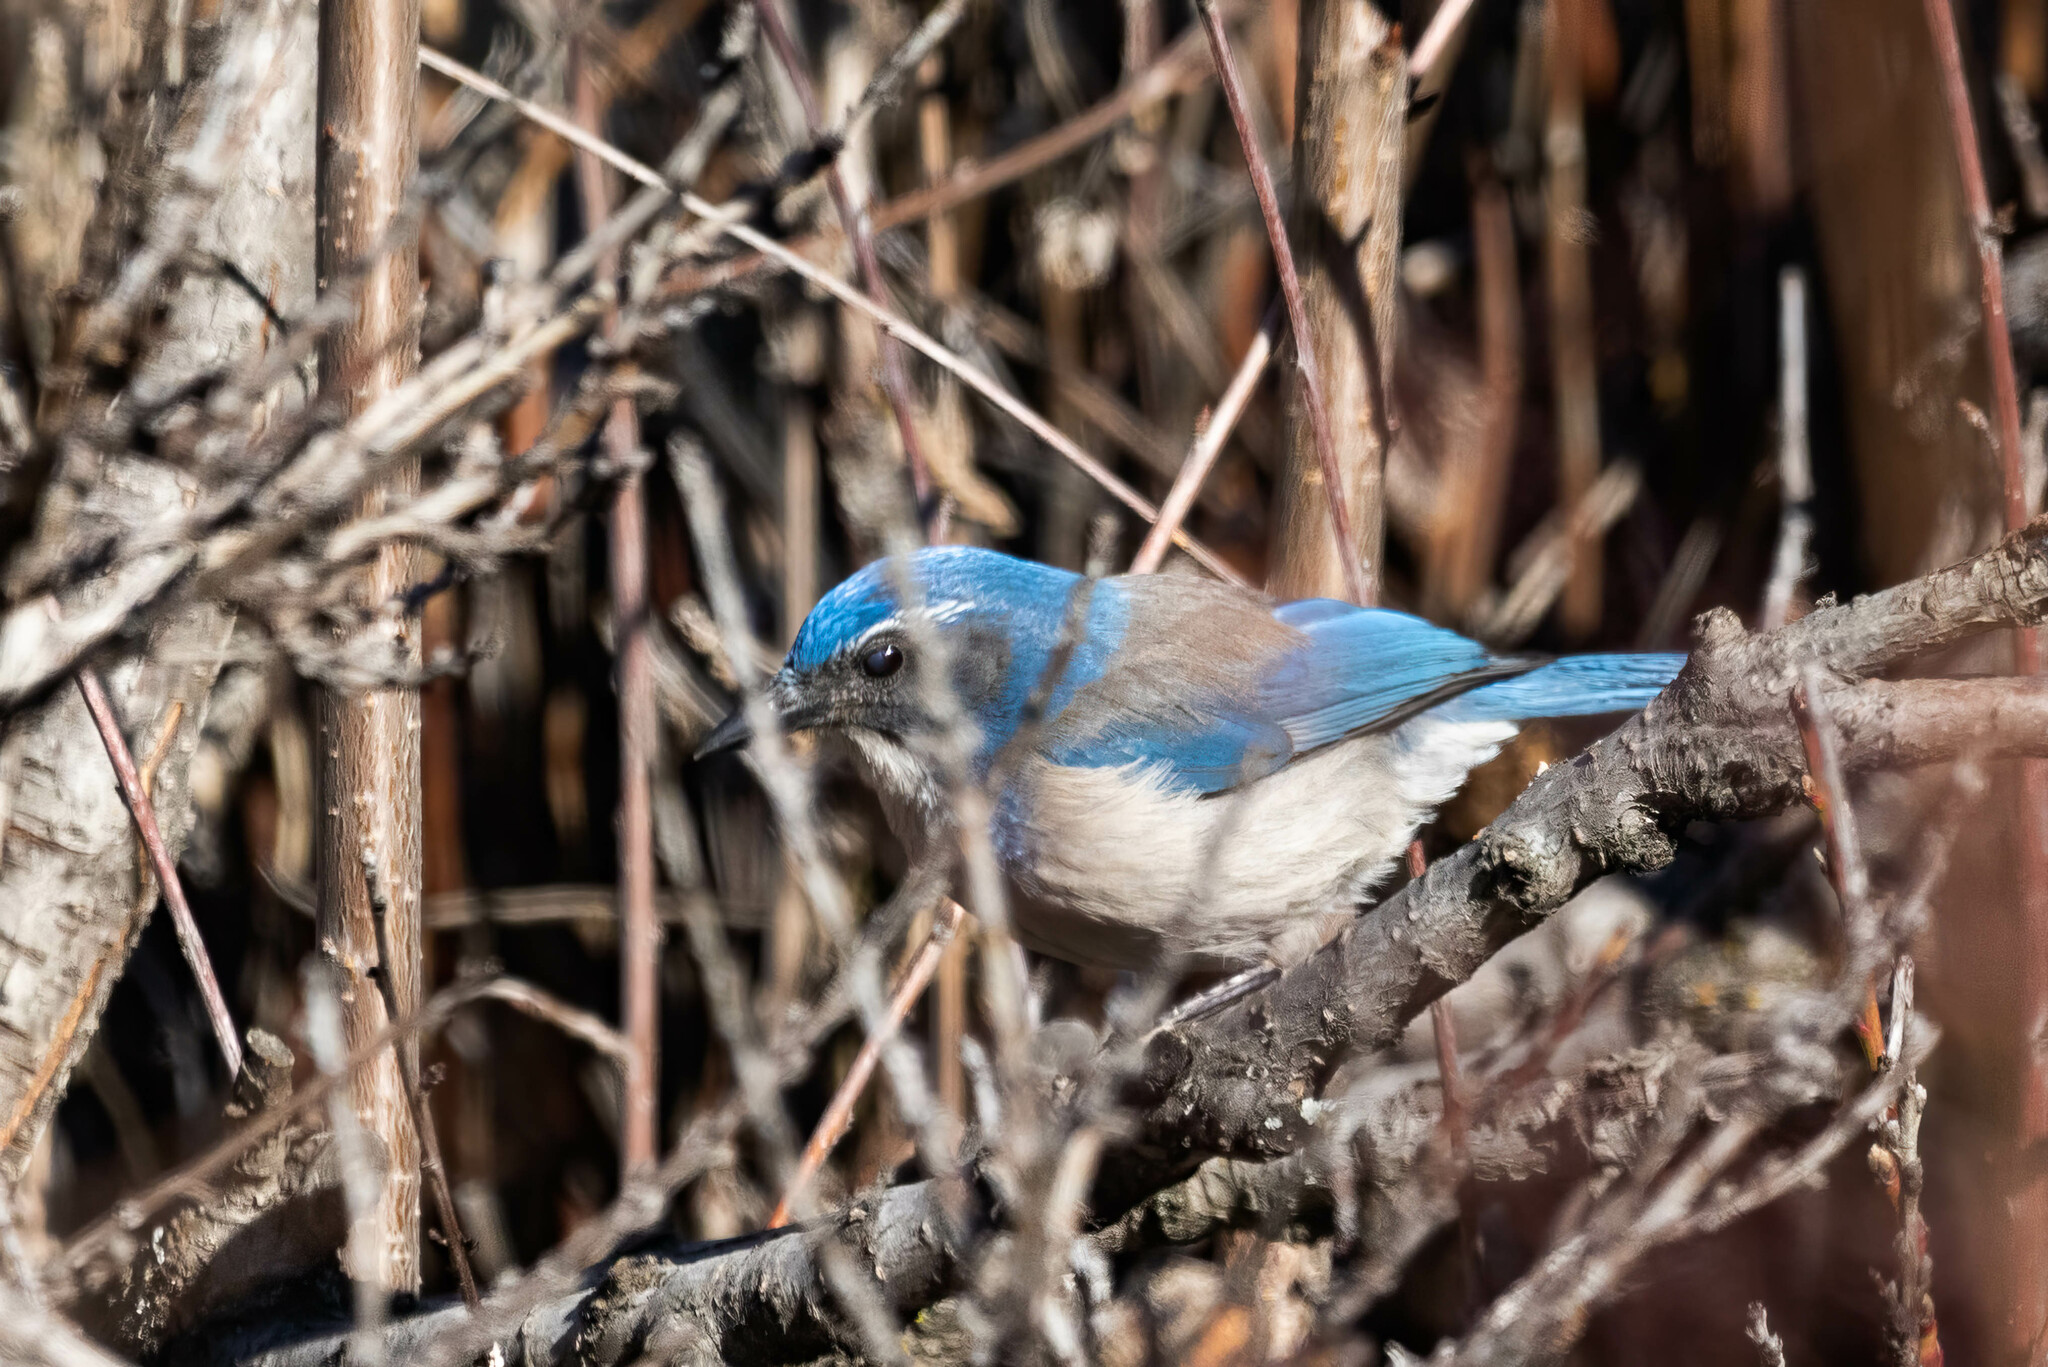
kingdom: Animalia
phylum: Chordata
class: Aves
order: Passeriformes
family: Corvidae
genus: Aphelocoma
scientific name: Aphelocoma californica
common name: California scrub-jay
